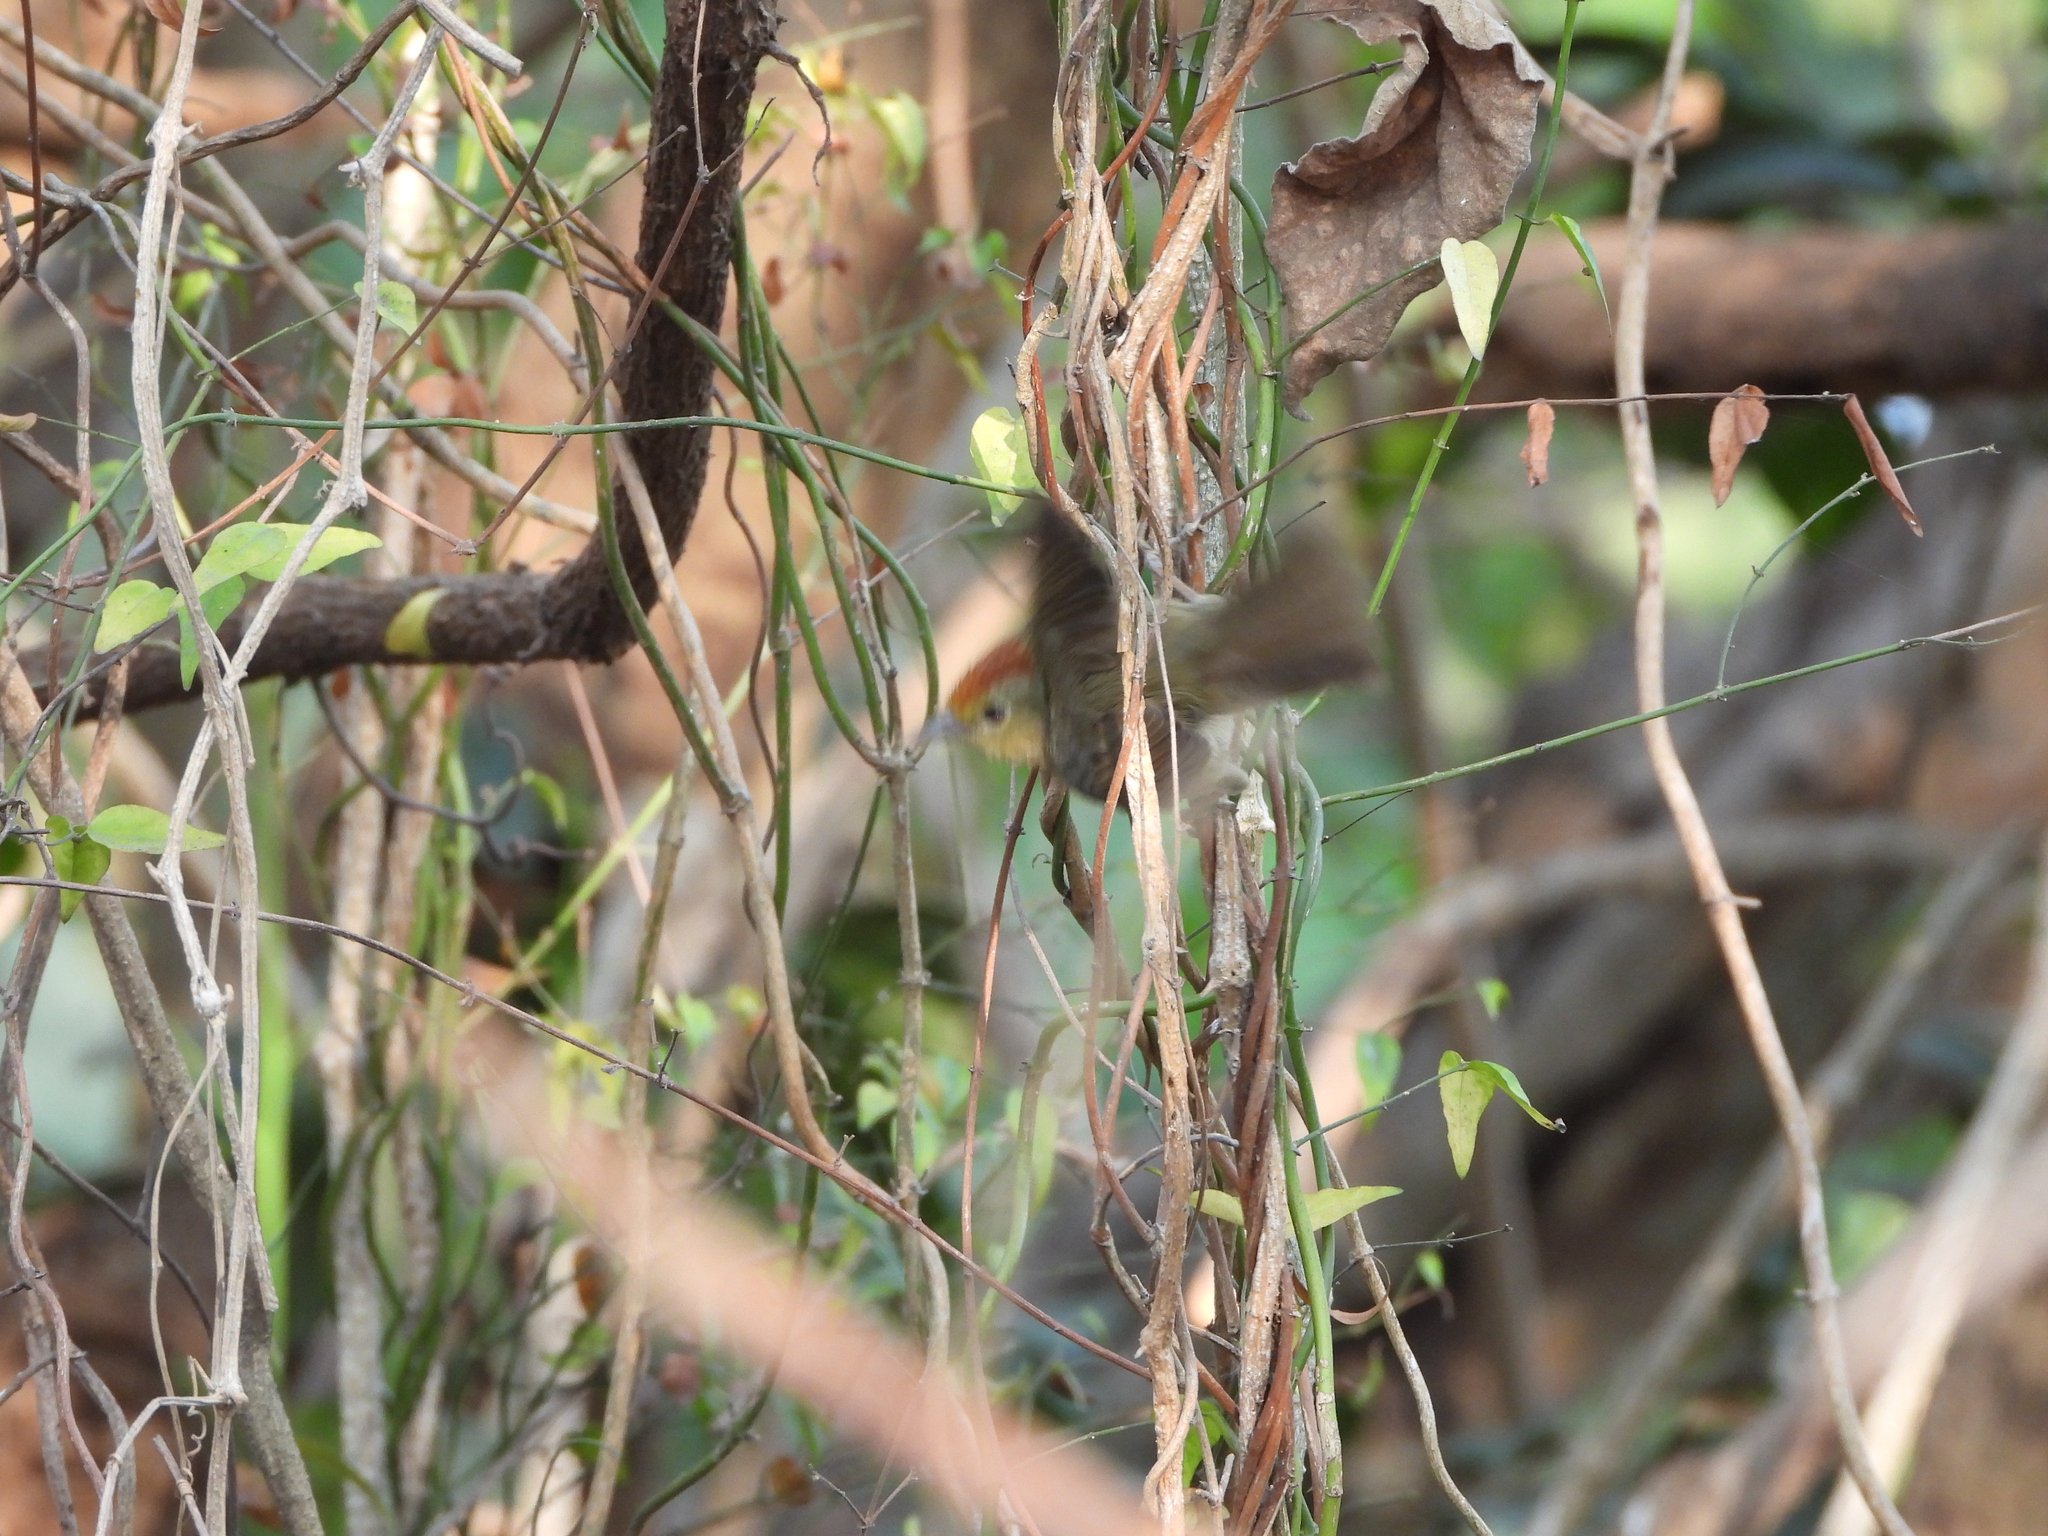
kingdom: Animalia
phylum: Chordata
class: Aves
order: Passeriformes
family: Timaliidae
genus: Stachyridopsis
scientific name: Stachyridopsis ruficeps
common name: Rufous-capped babbler
